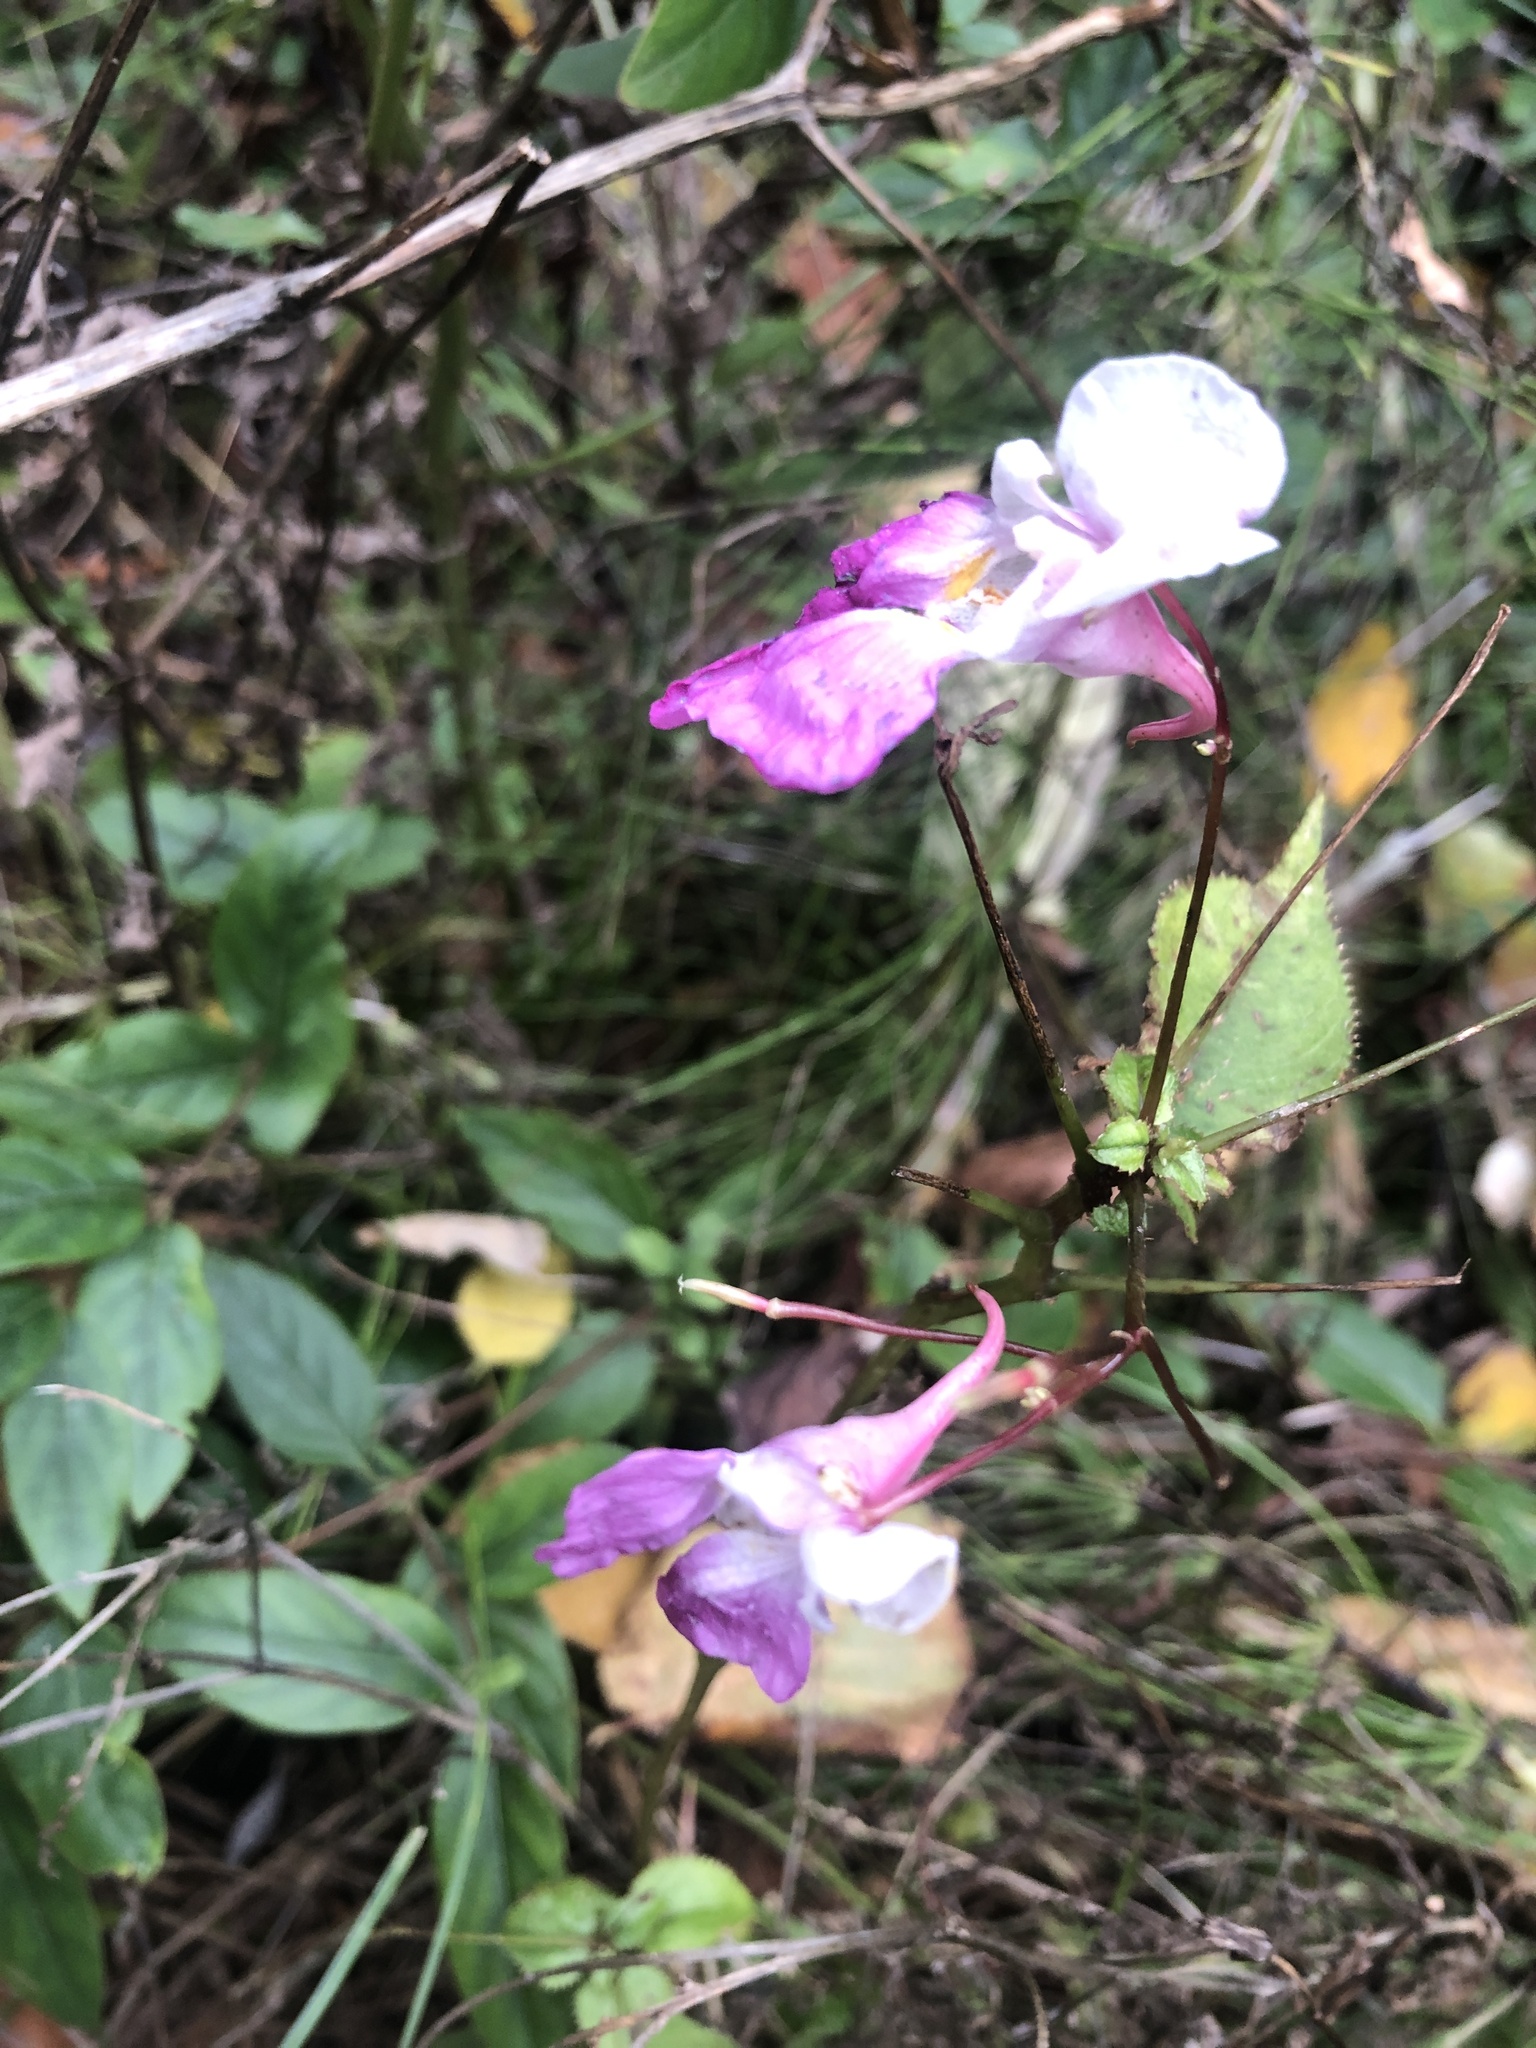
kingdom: Plantae
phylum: Tracheophyta
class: Magnoliopsida
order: Ericales
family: Balsaminaceae
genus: Impatiens
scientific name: Impatiens balfourii
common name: Balfour's touch-me-not
